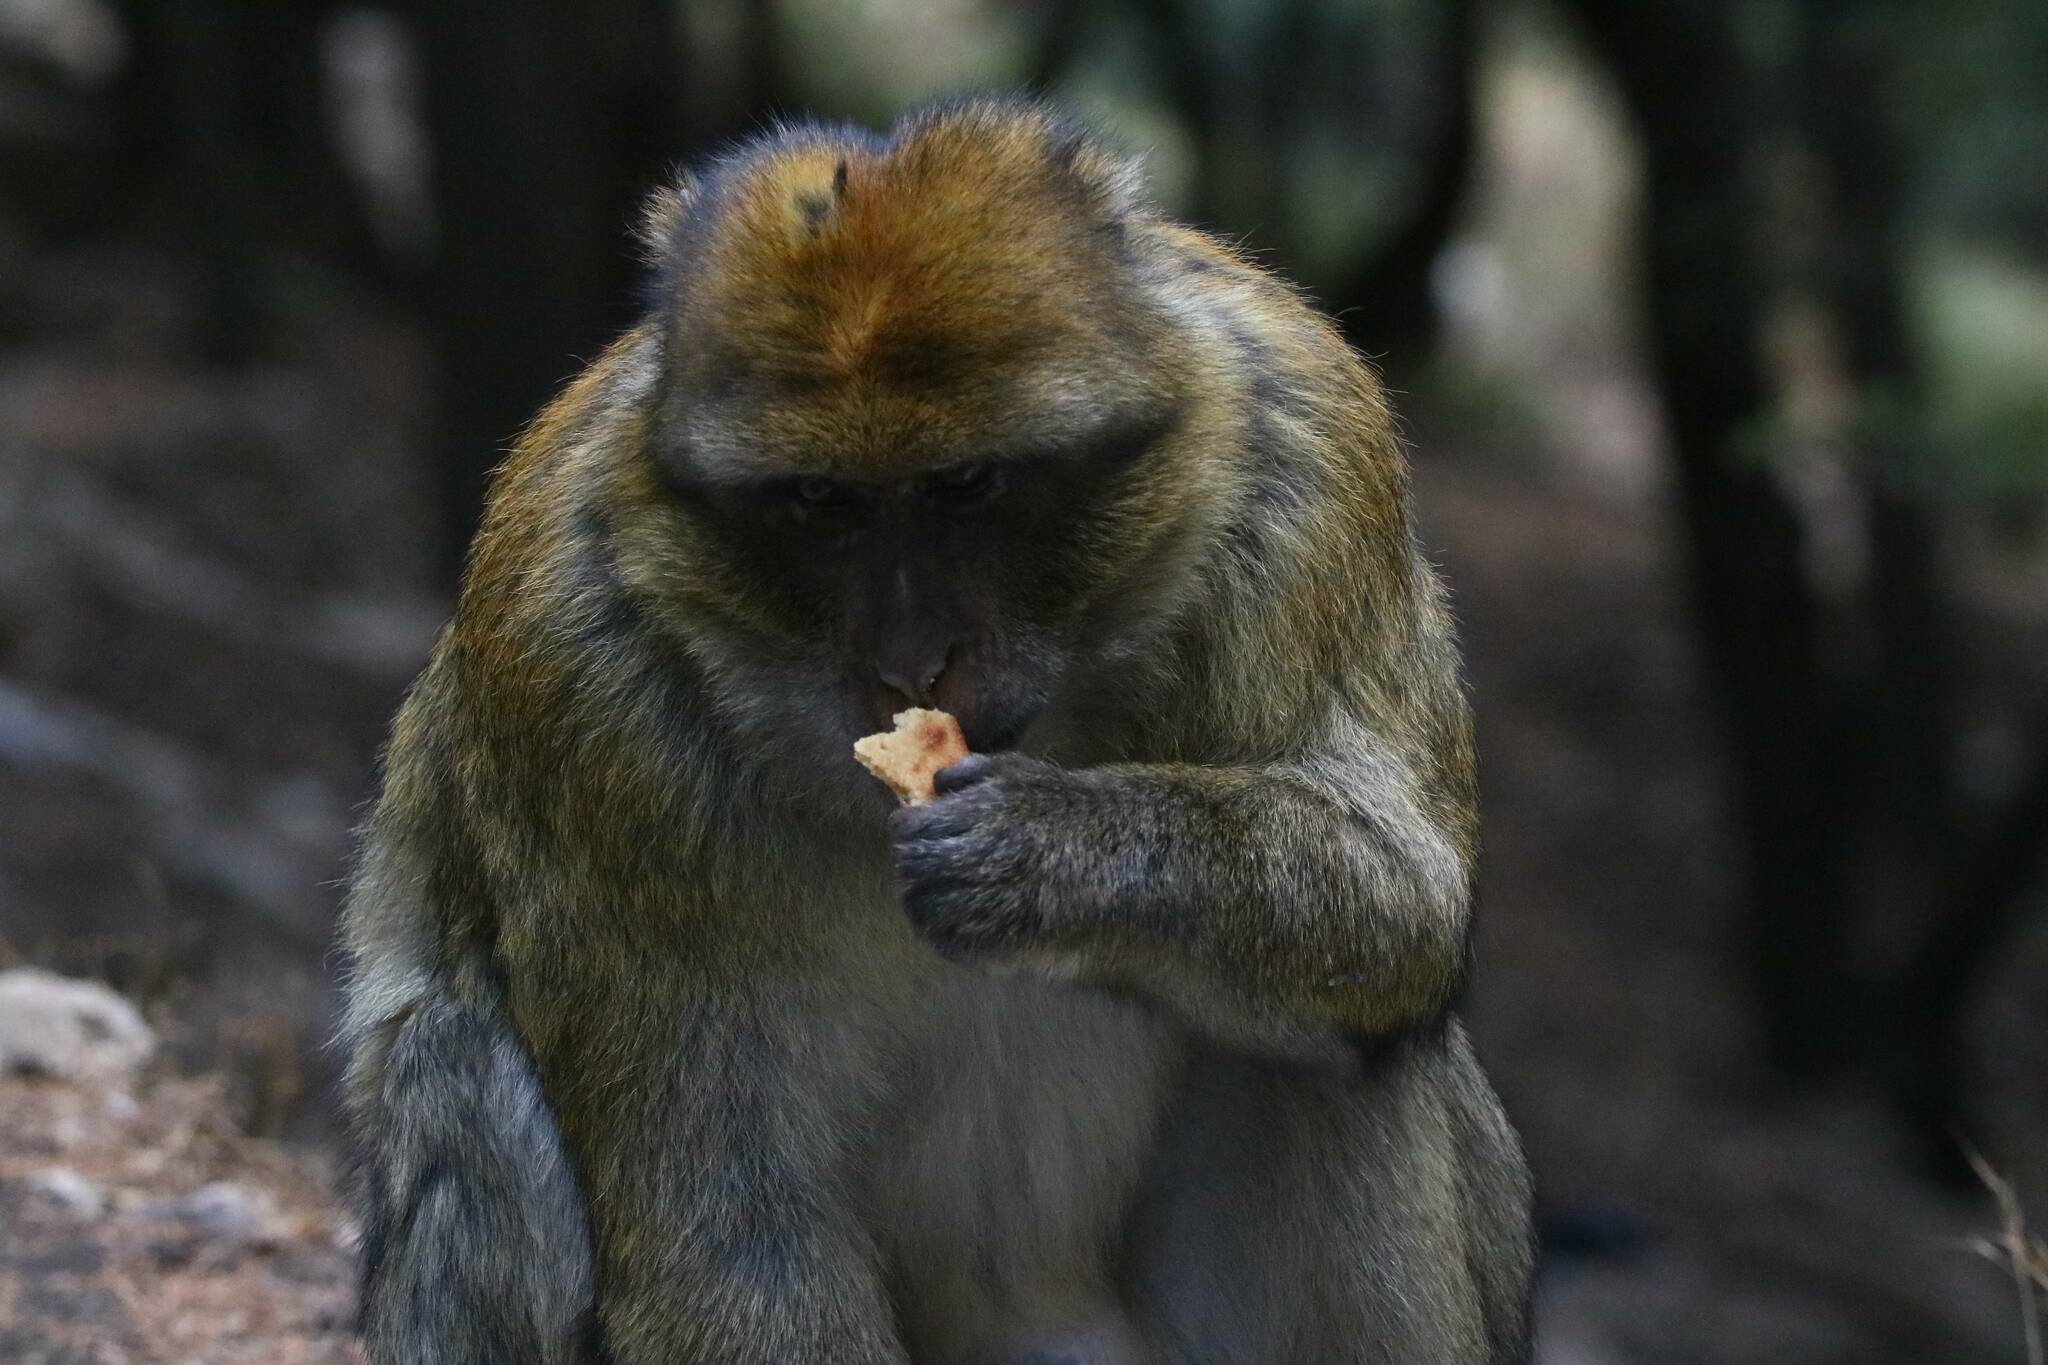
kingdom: Animalia
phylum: Chordata
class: Mammalia
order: Primates
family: Cercopithecidae
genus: Macaca
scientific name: Macaca sylvanus
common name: Barbary macaque
